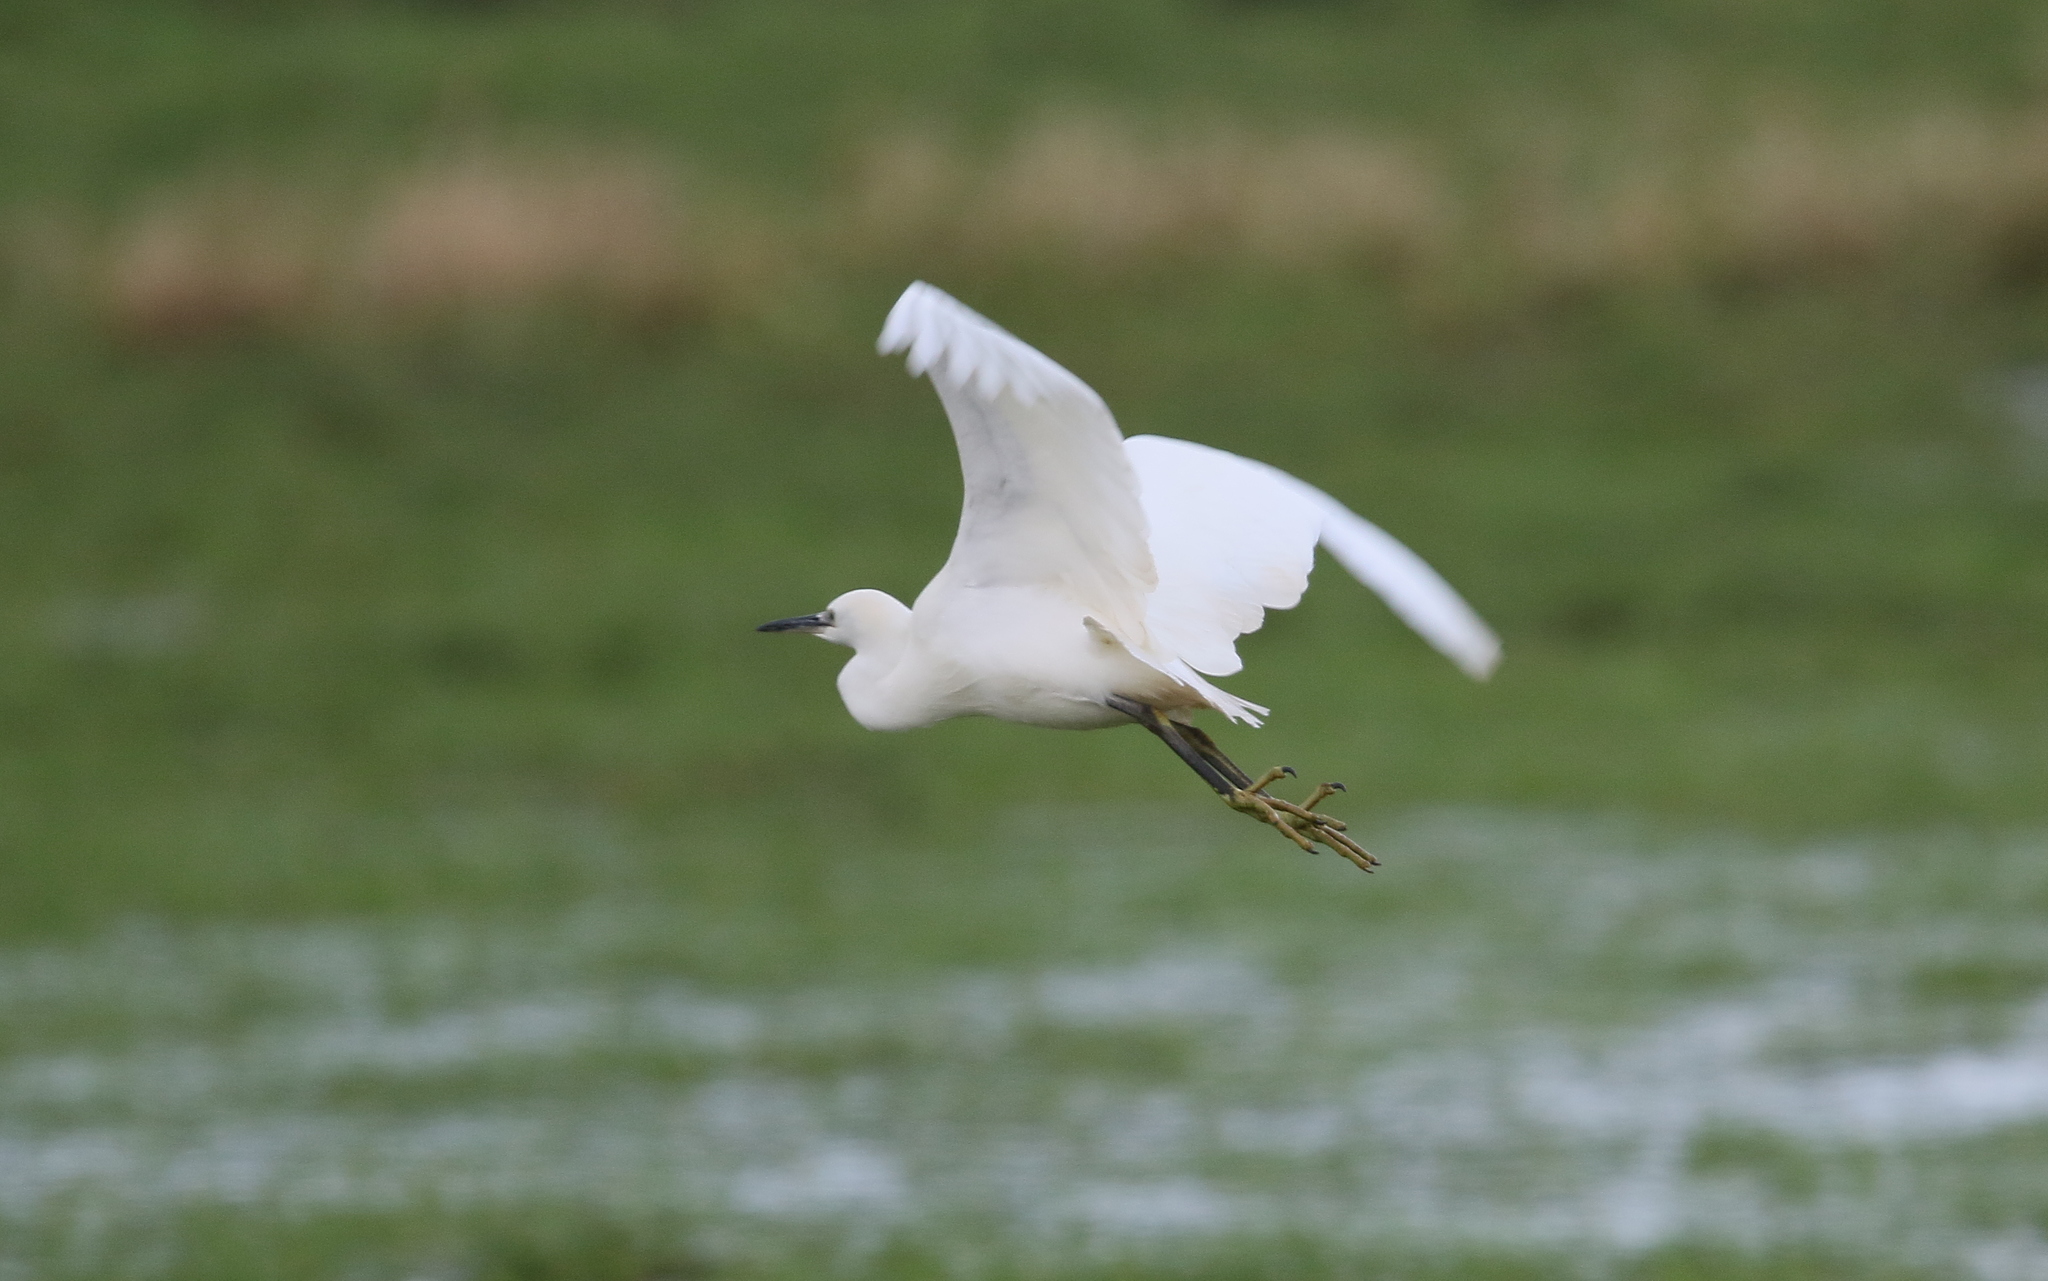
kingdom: Animalia
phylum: Chordata
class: Aves
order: Pelecaniformes
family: Ardeidae
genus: Egretta
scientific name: Egretta garzetta
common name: Little egret
